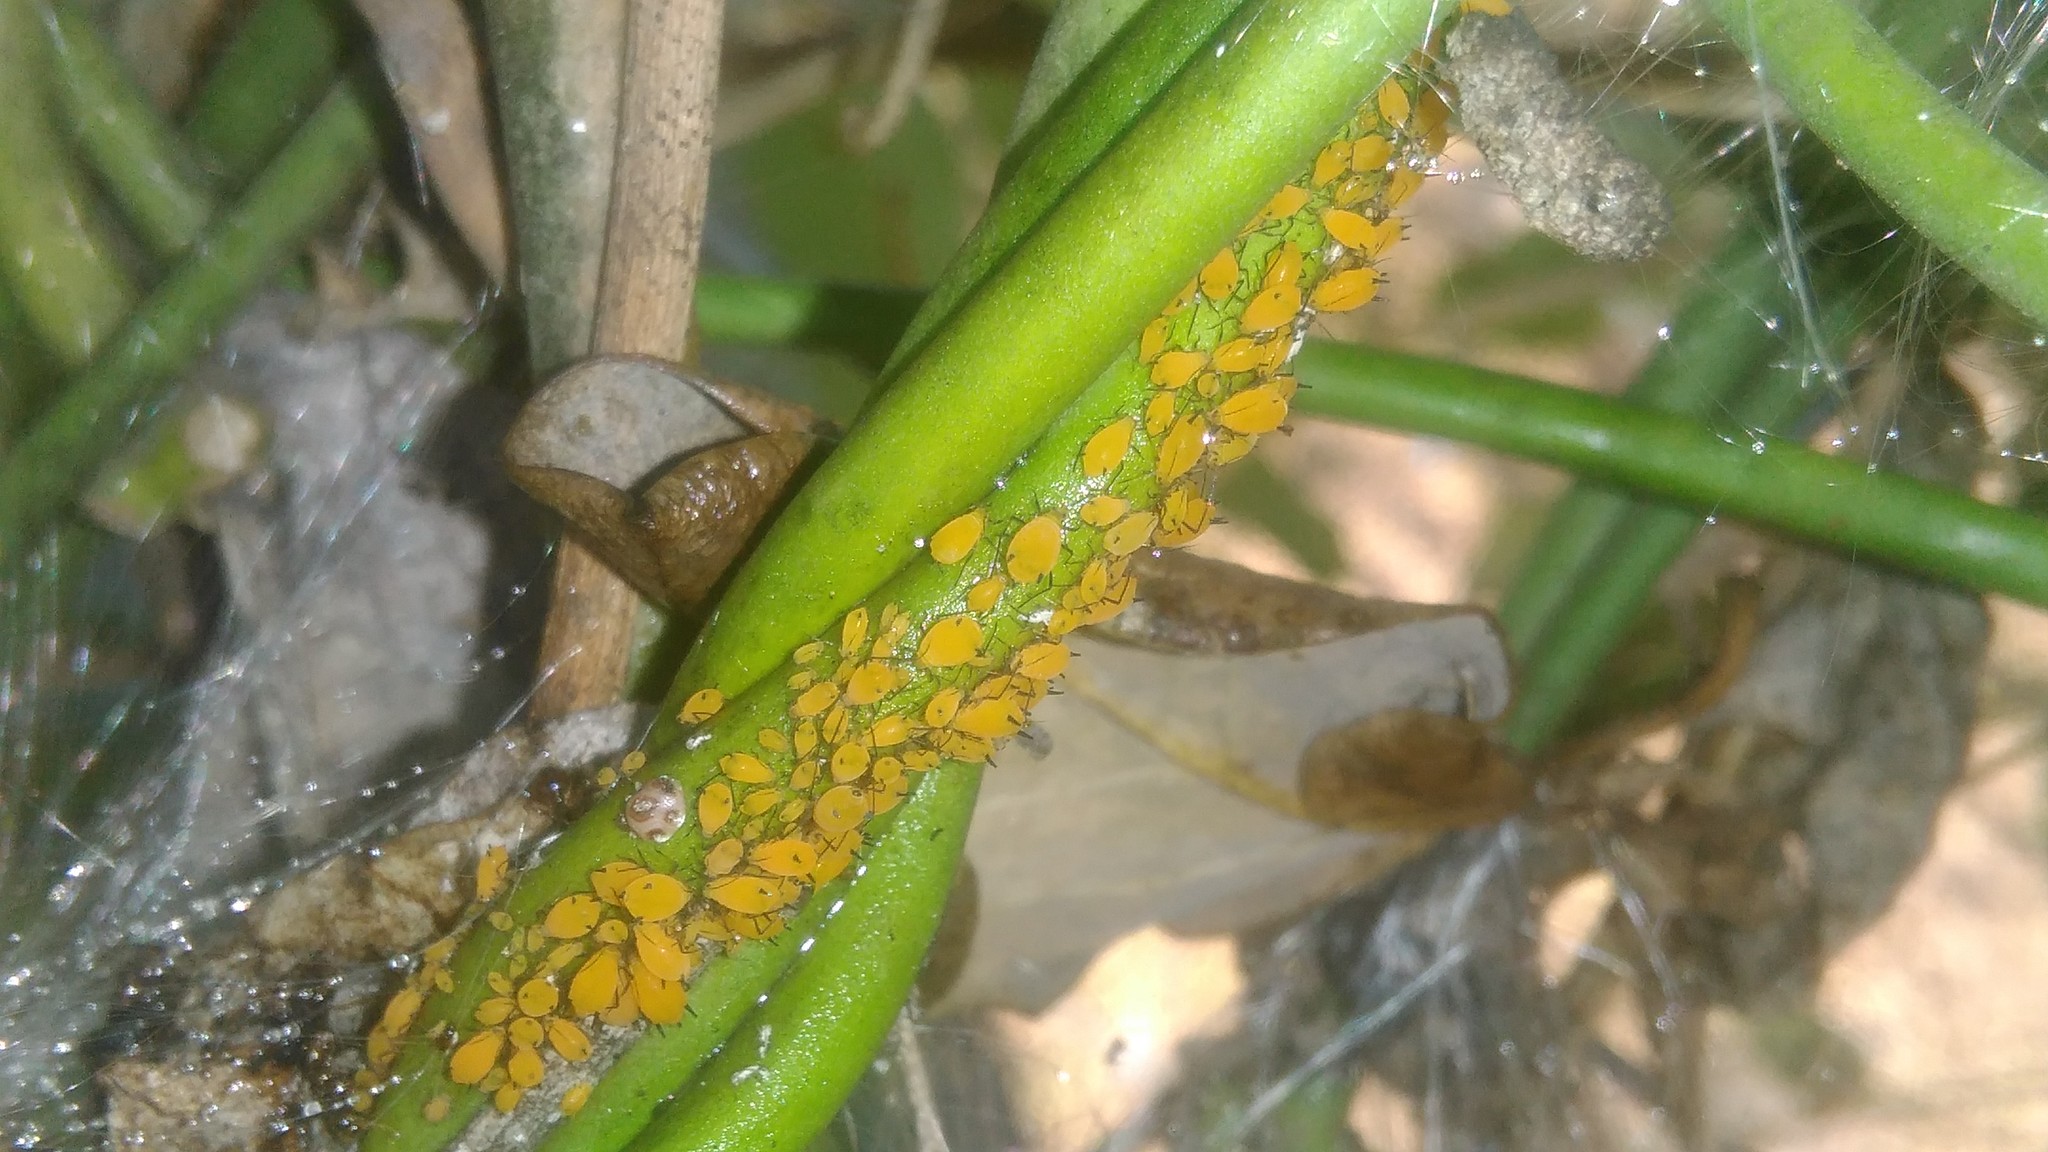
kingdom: Animalia
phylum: Arthropoda
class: Insecta
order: Hemiptera
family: Aphididae
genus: Aphis
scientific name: Aphis nerii
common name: Oleander aphid
